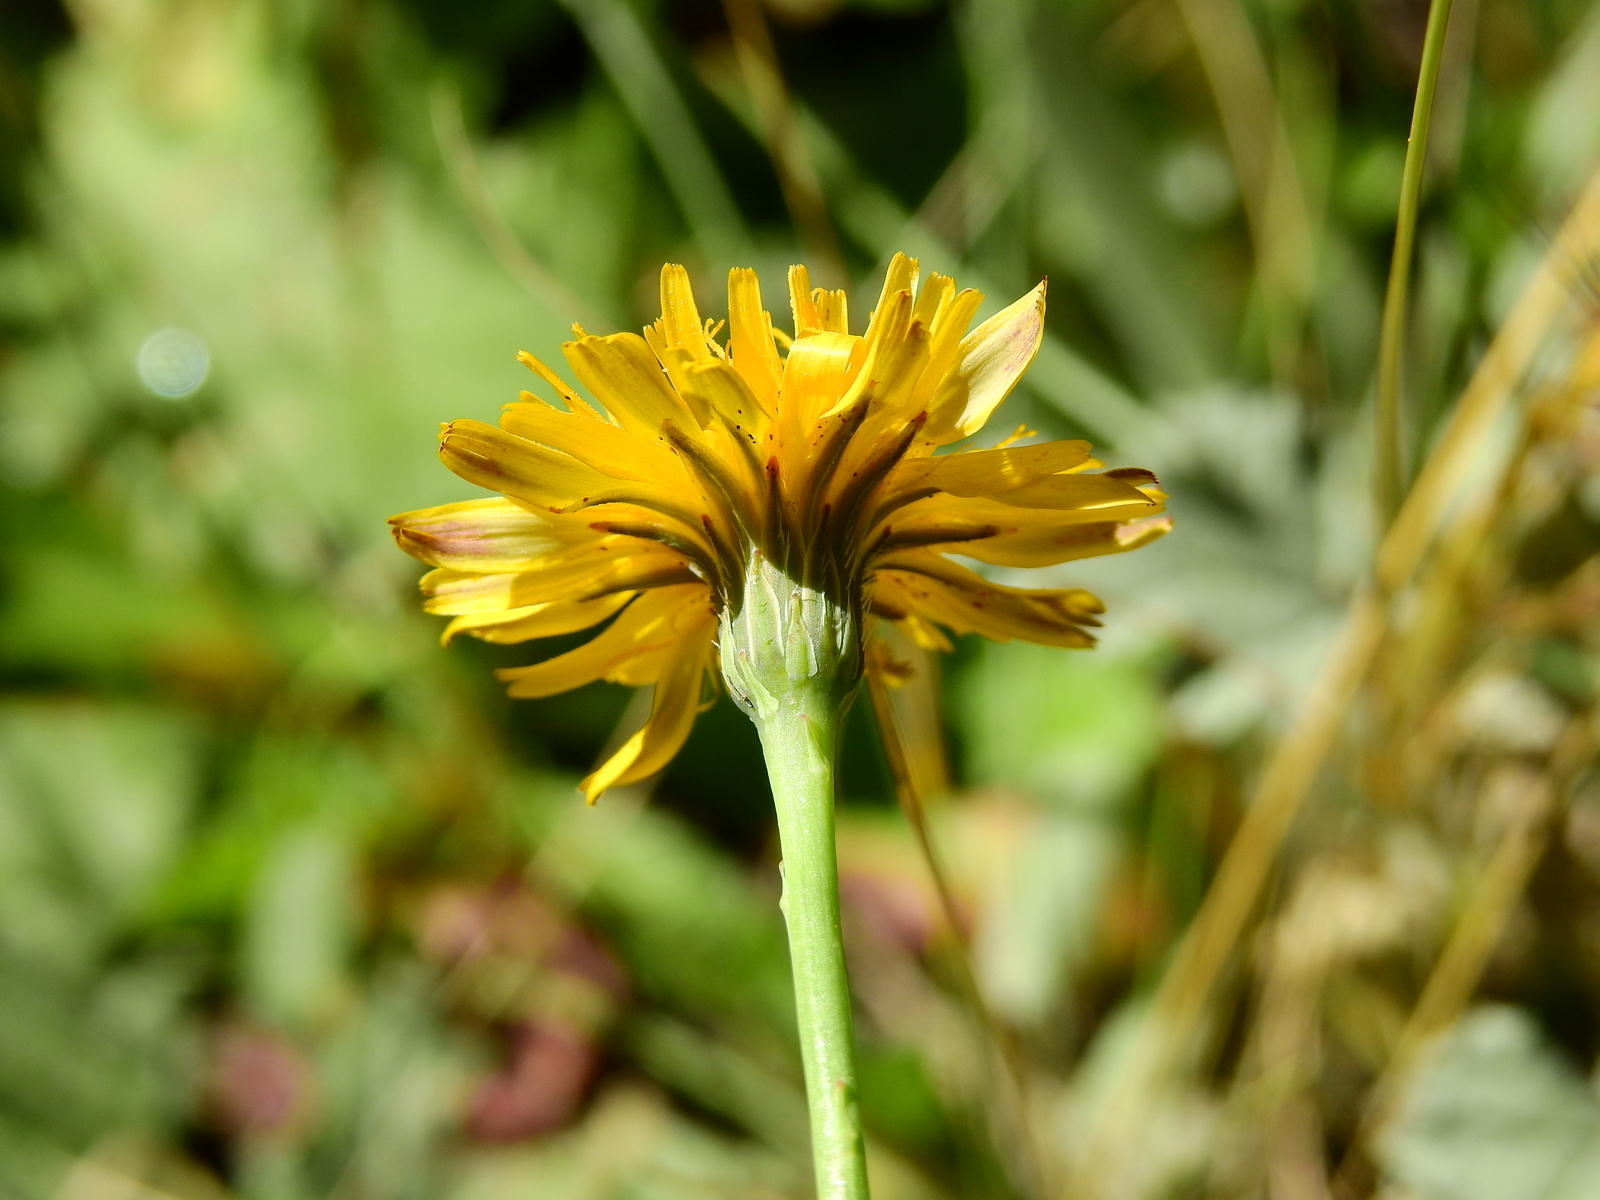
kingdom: Plantae
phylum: Tracheophyta
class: Magnoliopsida
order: Asterales
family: Asteraceae
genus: Hypochaeris
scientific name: Hypochaeris radicata
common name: Flatweed
